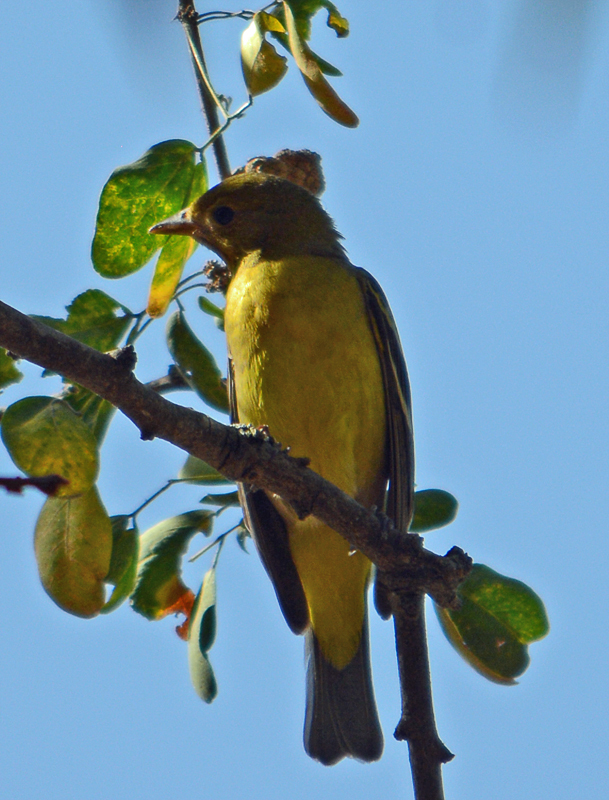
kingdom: Animalia
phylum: Chordata
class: Aves
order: Passeriformes
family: Cardinalidae
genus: Piranga
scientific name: Piranga ludoviciana
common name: Western tanager
